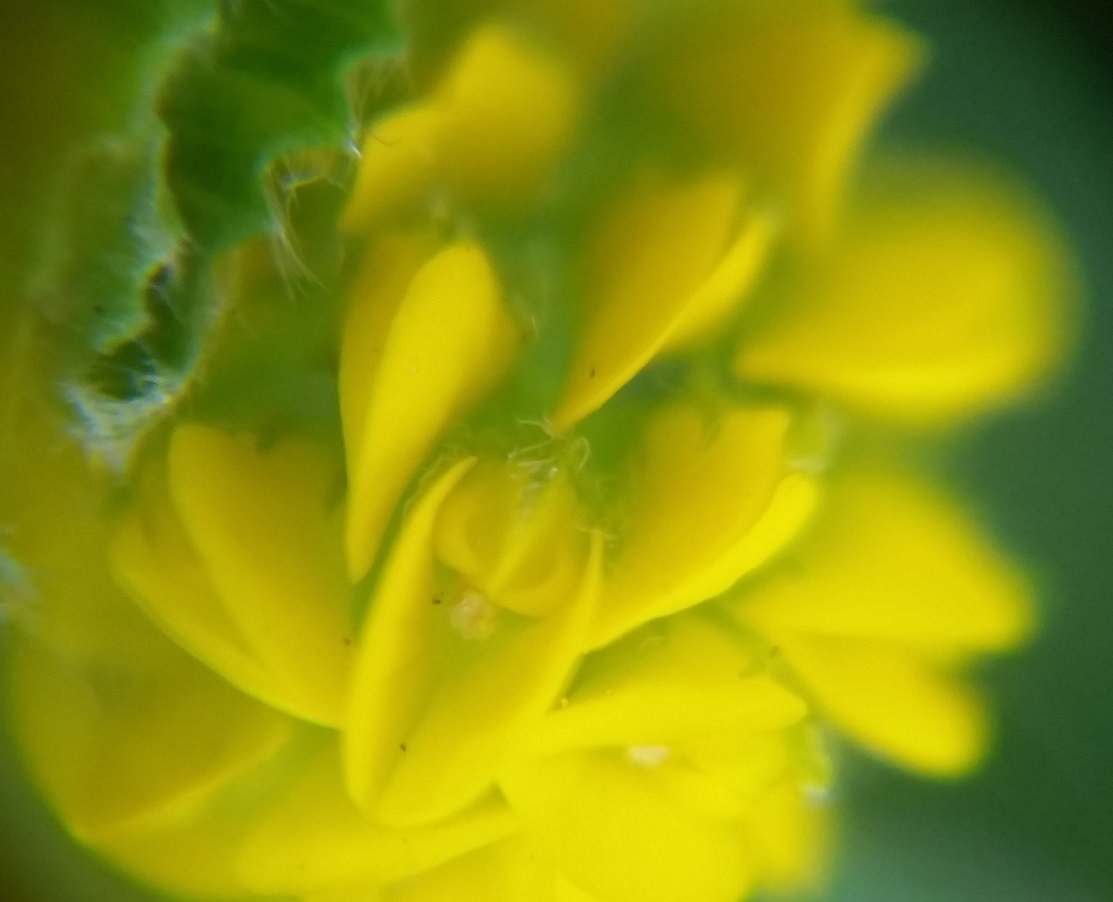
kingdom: Plantae
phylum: Tracheophyta
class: Magnoliopsida
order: Fabales
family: Fabaceae
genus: Medicago
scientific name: Medicago lupulina
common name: Black medick
